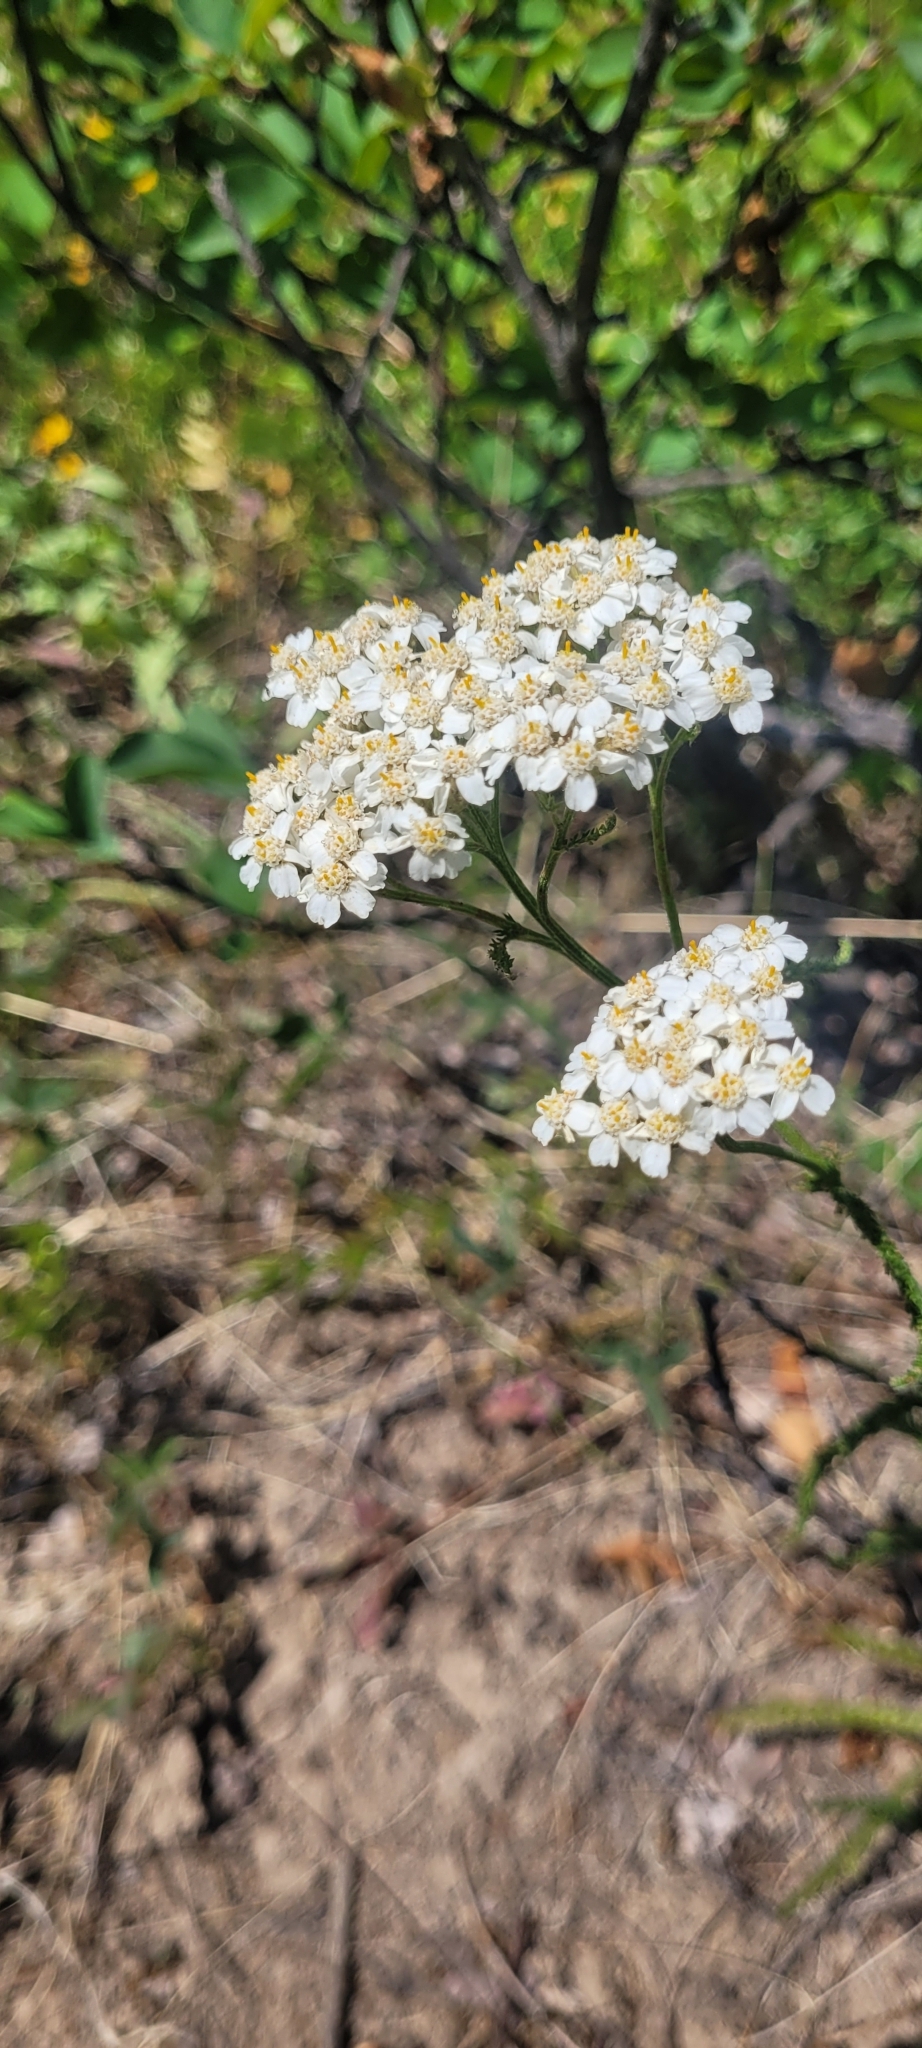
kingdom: Plantae
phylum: Tracheophyta
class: Magnoliopsida
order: Asterales
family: Asteraceae
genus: Achillea
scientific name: Achillea millefolium
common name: Yarrow
